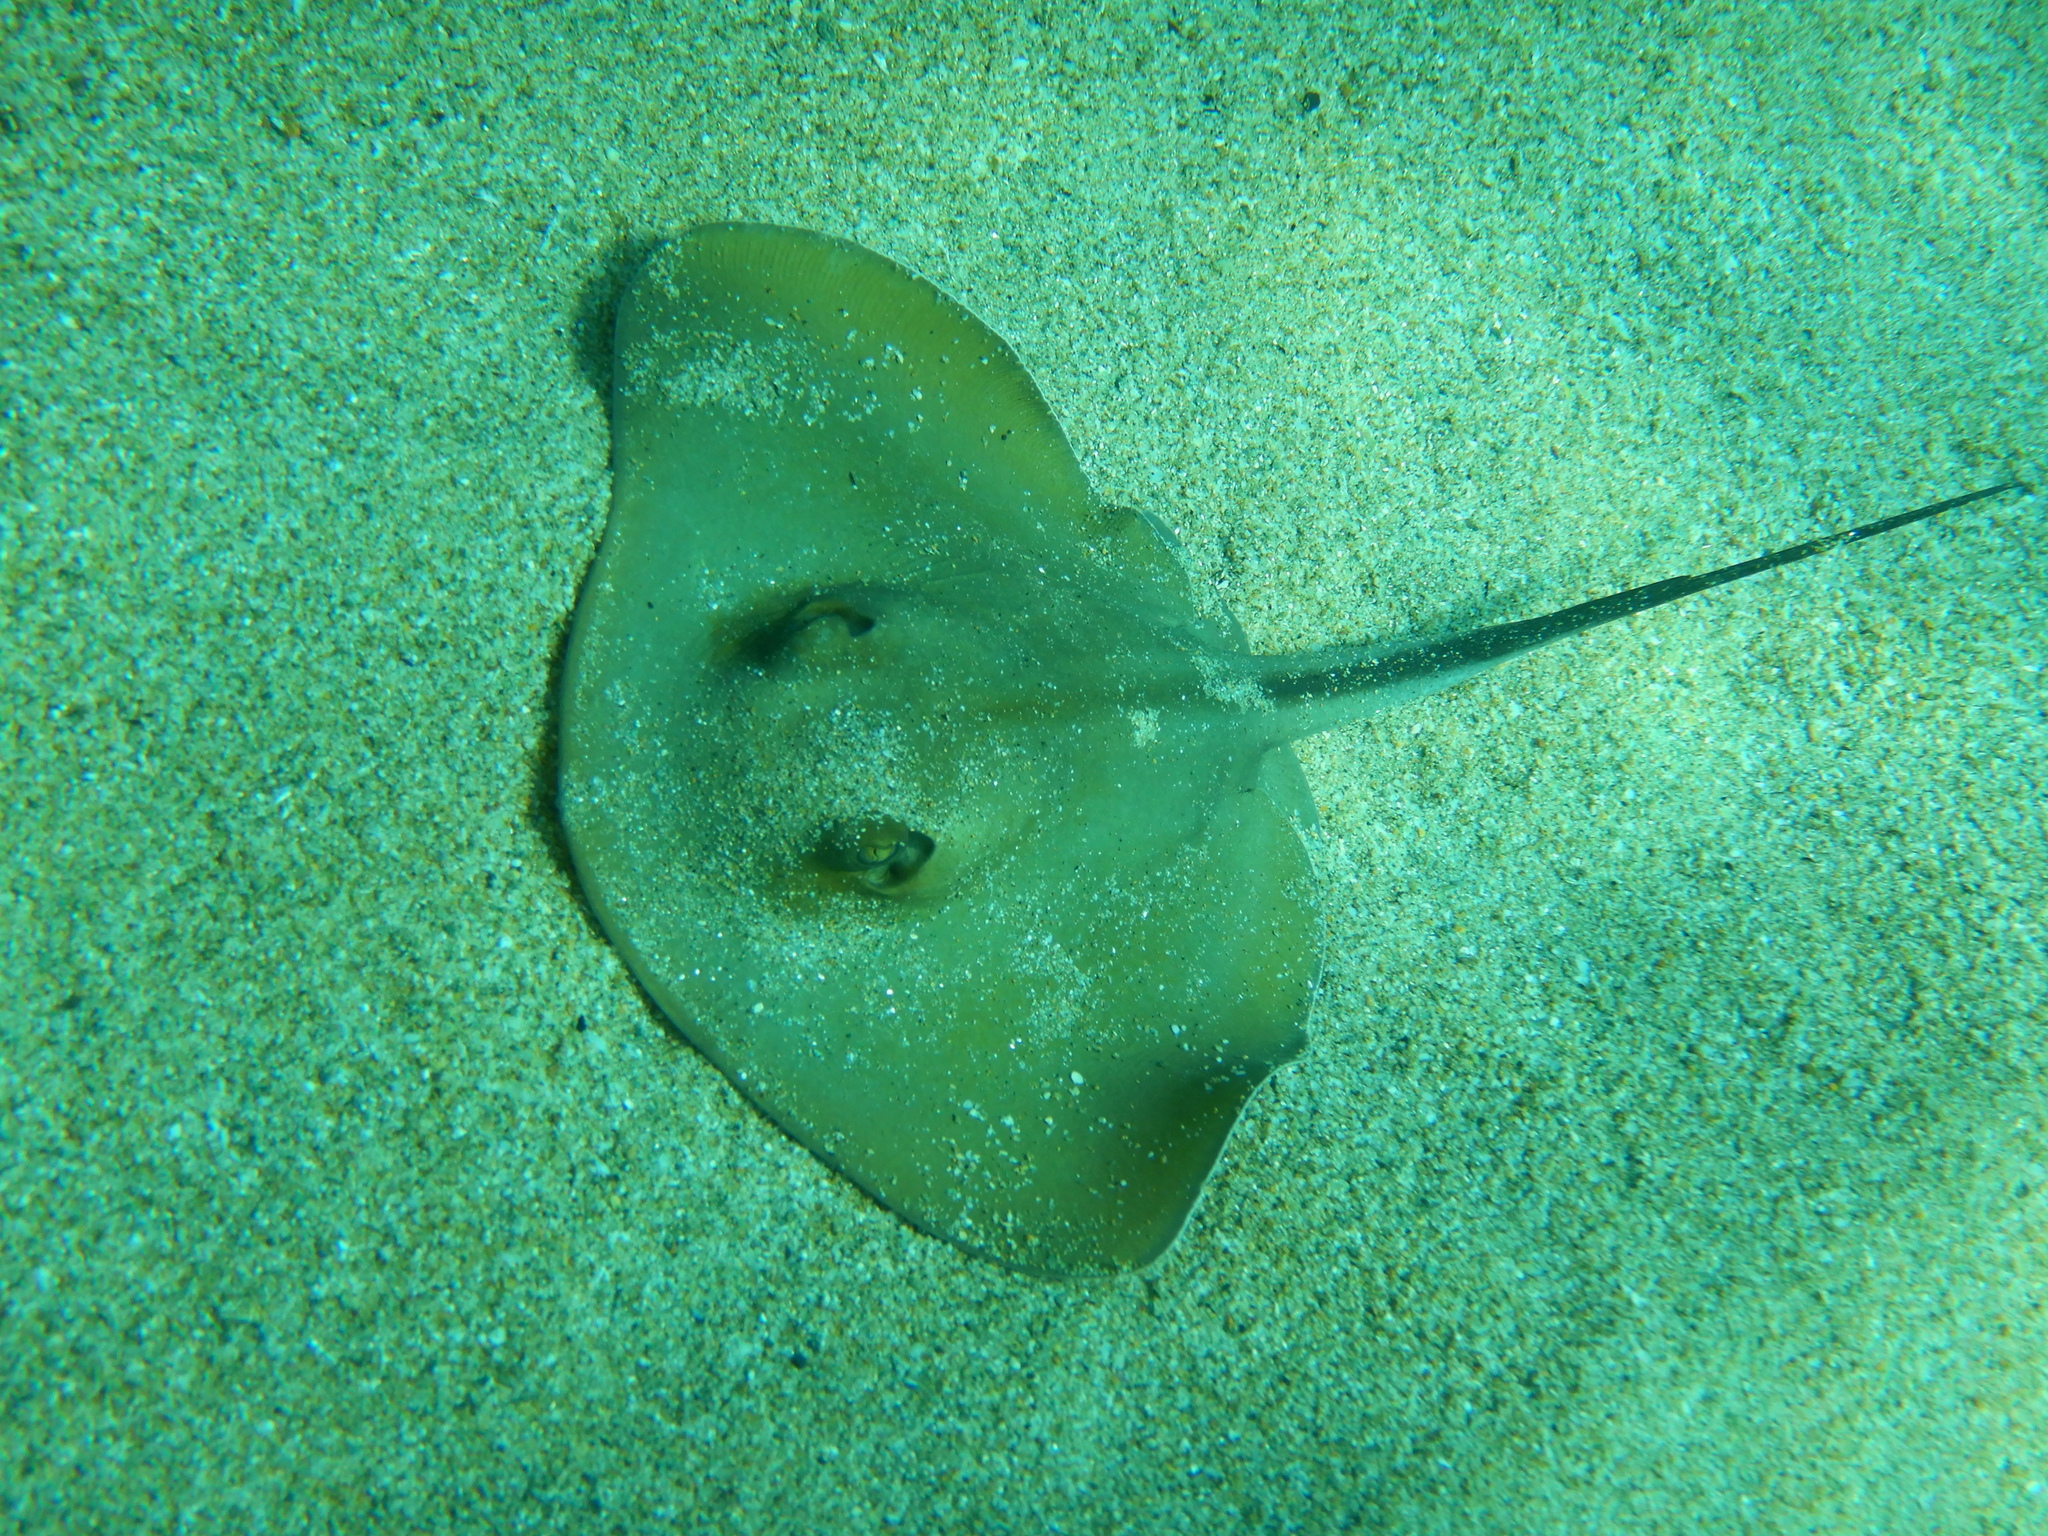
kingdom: Animalia
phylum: Chordata
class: Elasmobranchii
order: Myliobatiformes
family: Dasyatidae
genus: Dasyatis
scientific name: Dasyatis pastinaca
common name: Common stingray
